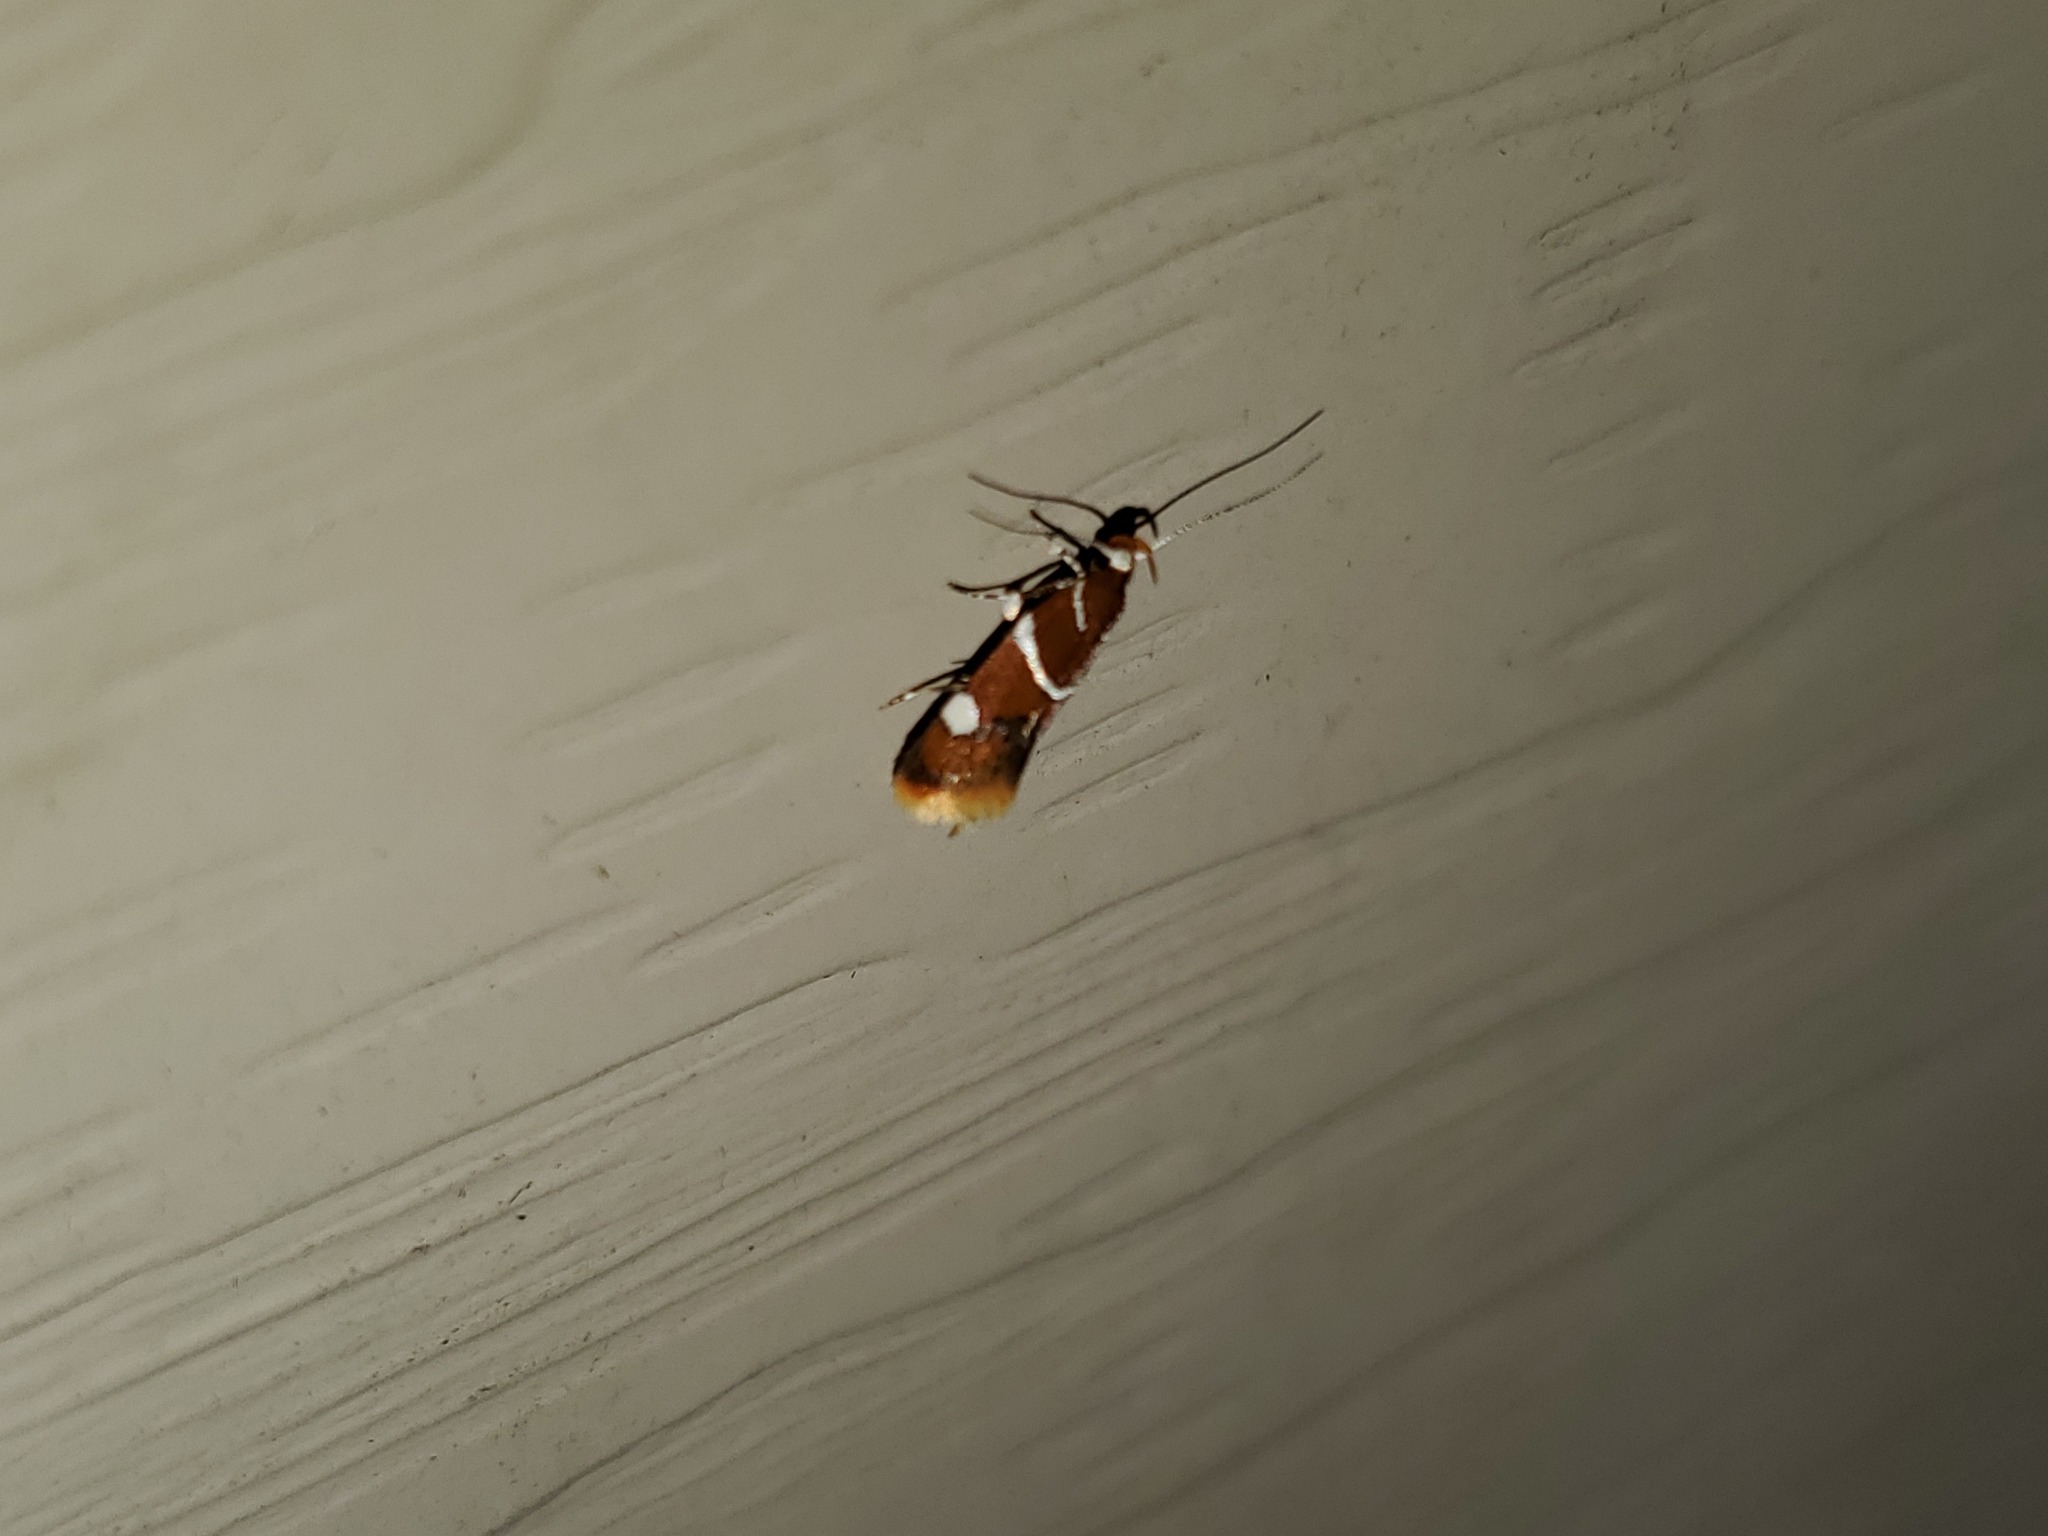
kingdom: Animalia
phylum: Arthropoda
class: Insecta
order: Lepidoptera
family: Oecophoridae
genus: Promalactis
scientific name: Promalactis suzukiella
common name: Moth
